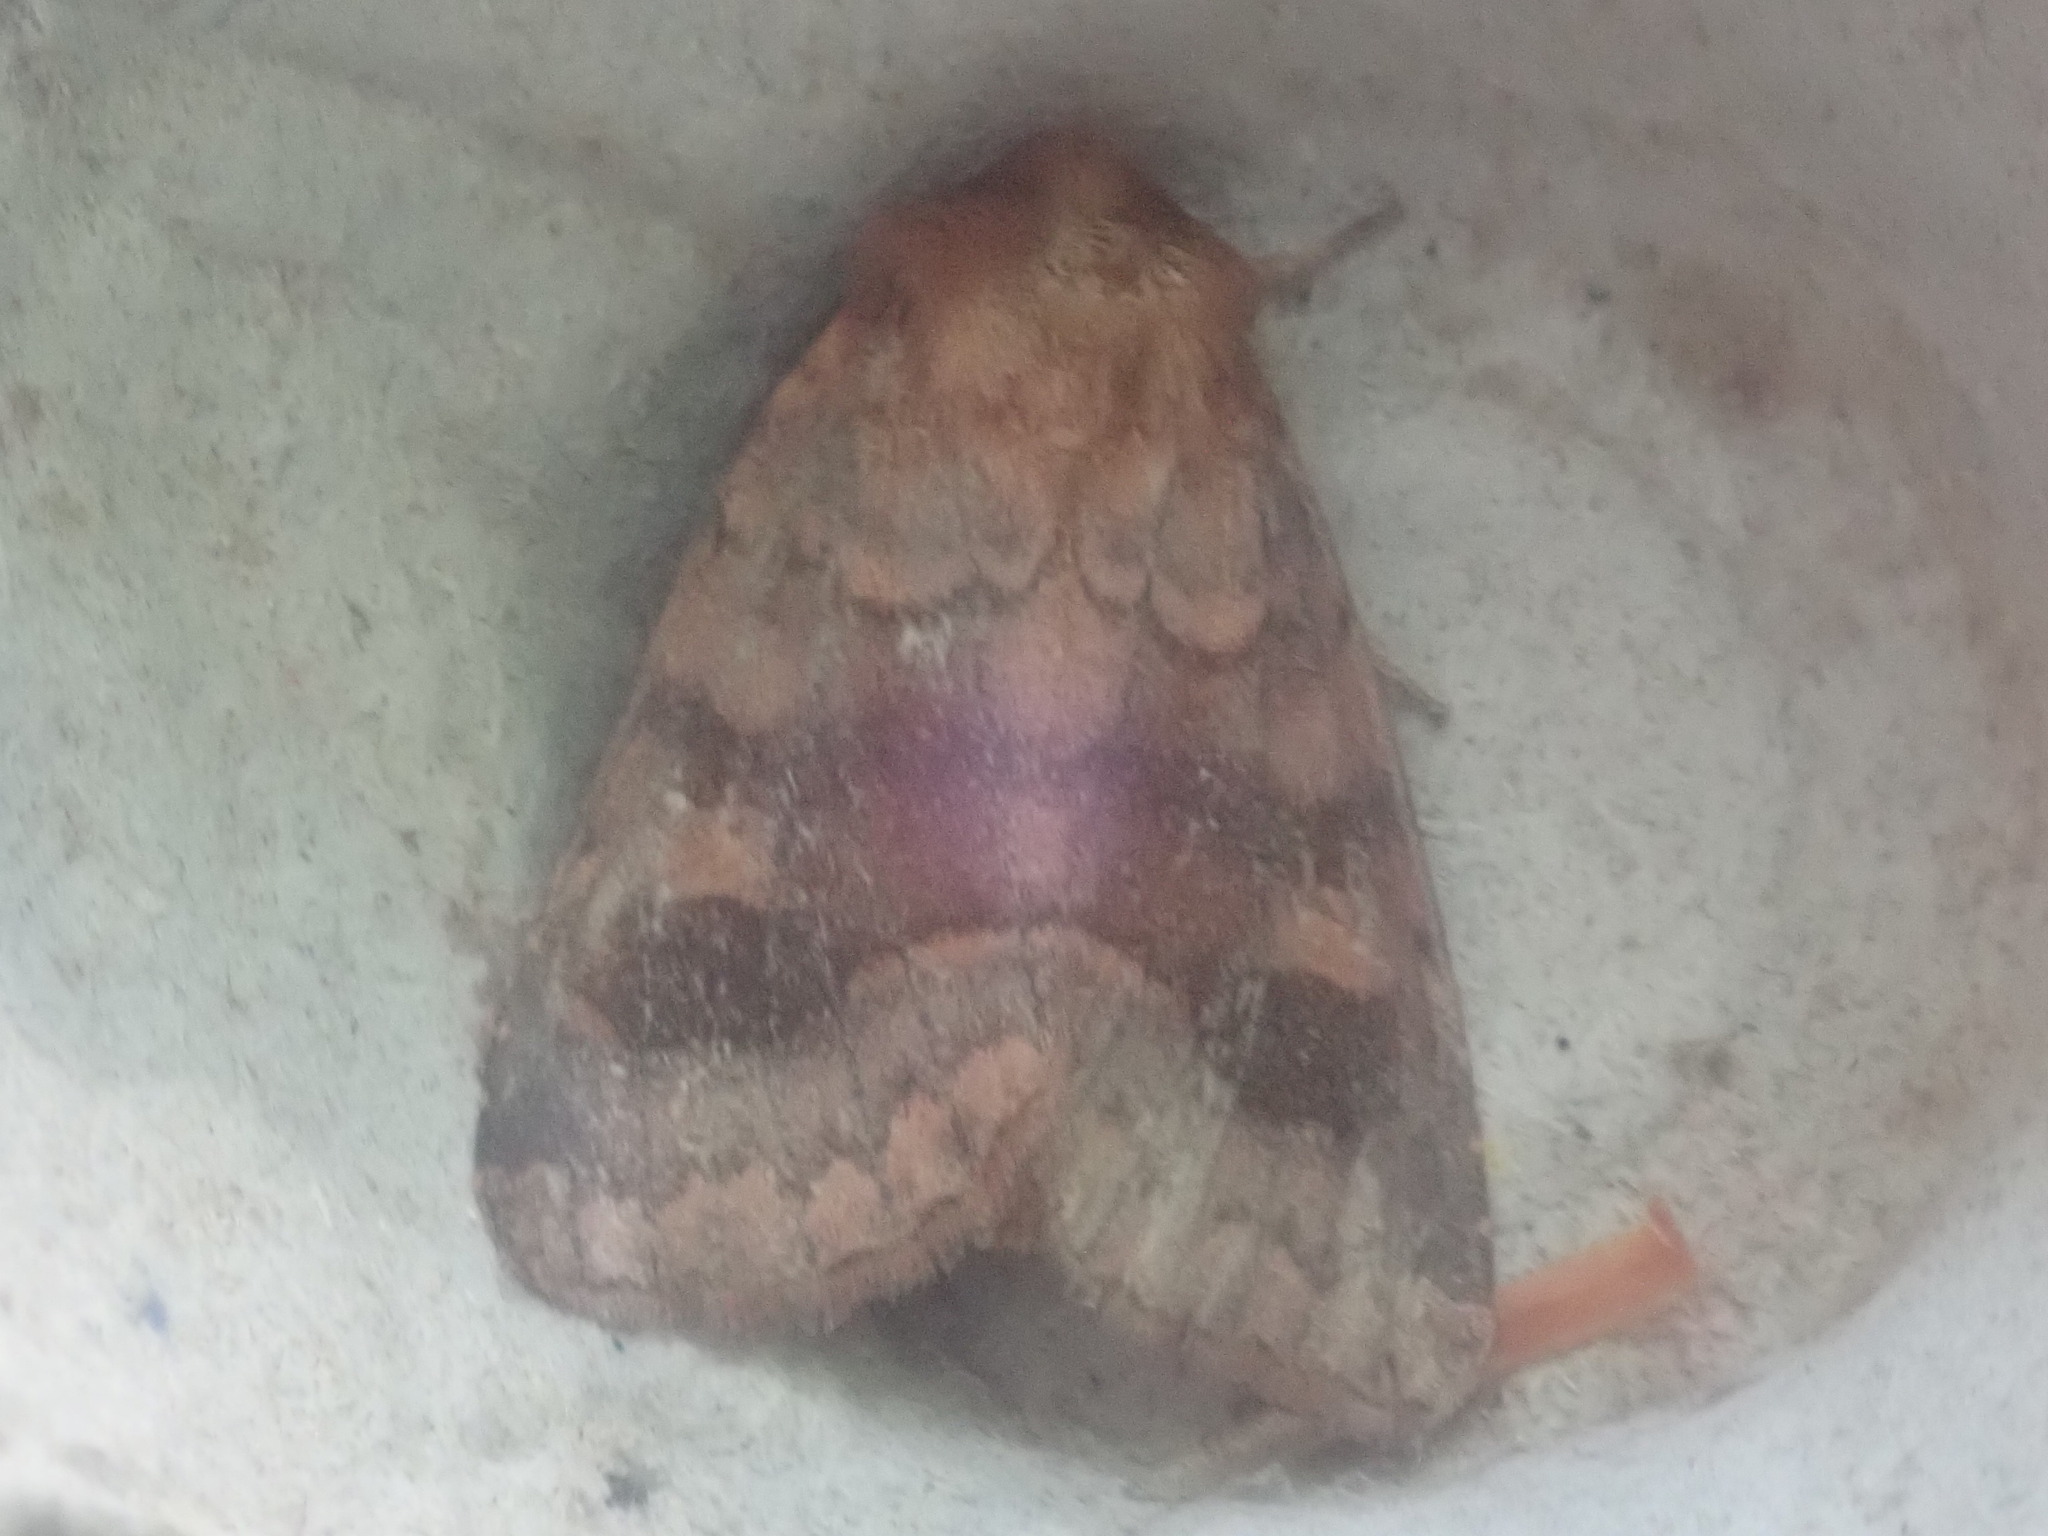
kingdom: Animalia
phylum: Arthropoda
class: Insecta
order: Lepidoptera
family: Noctuidae
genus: Nephelodes
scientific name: Nephelodes minians
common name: Bronzed cutworm
